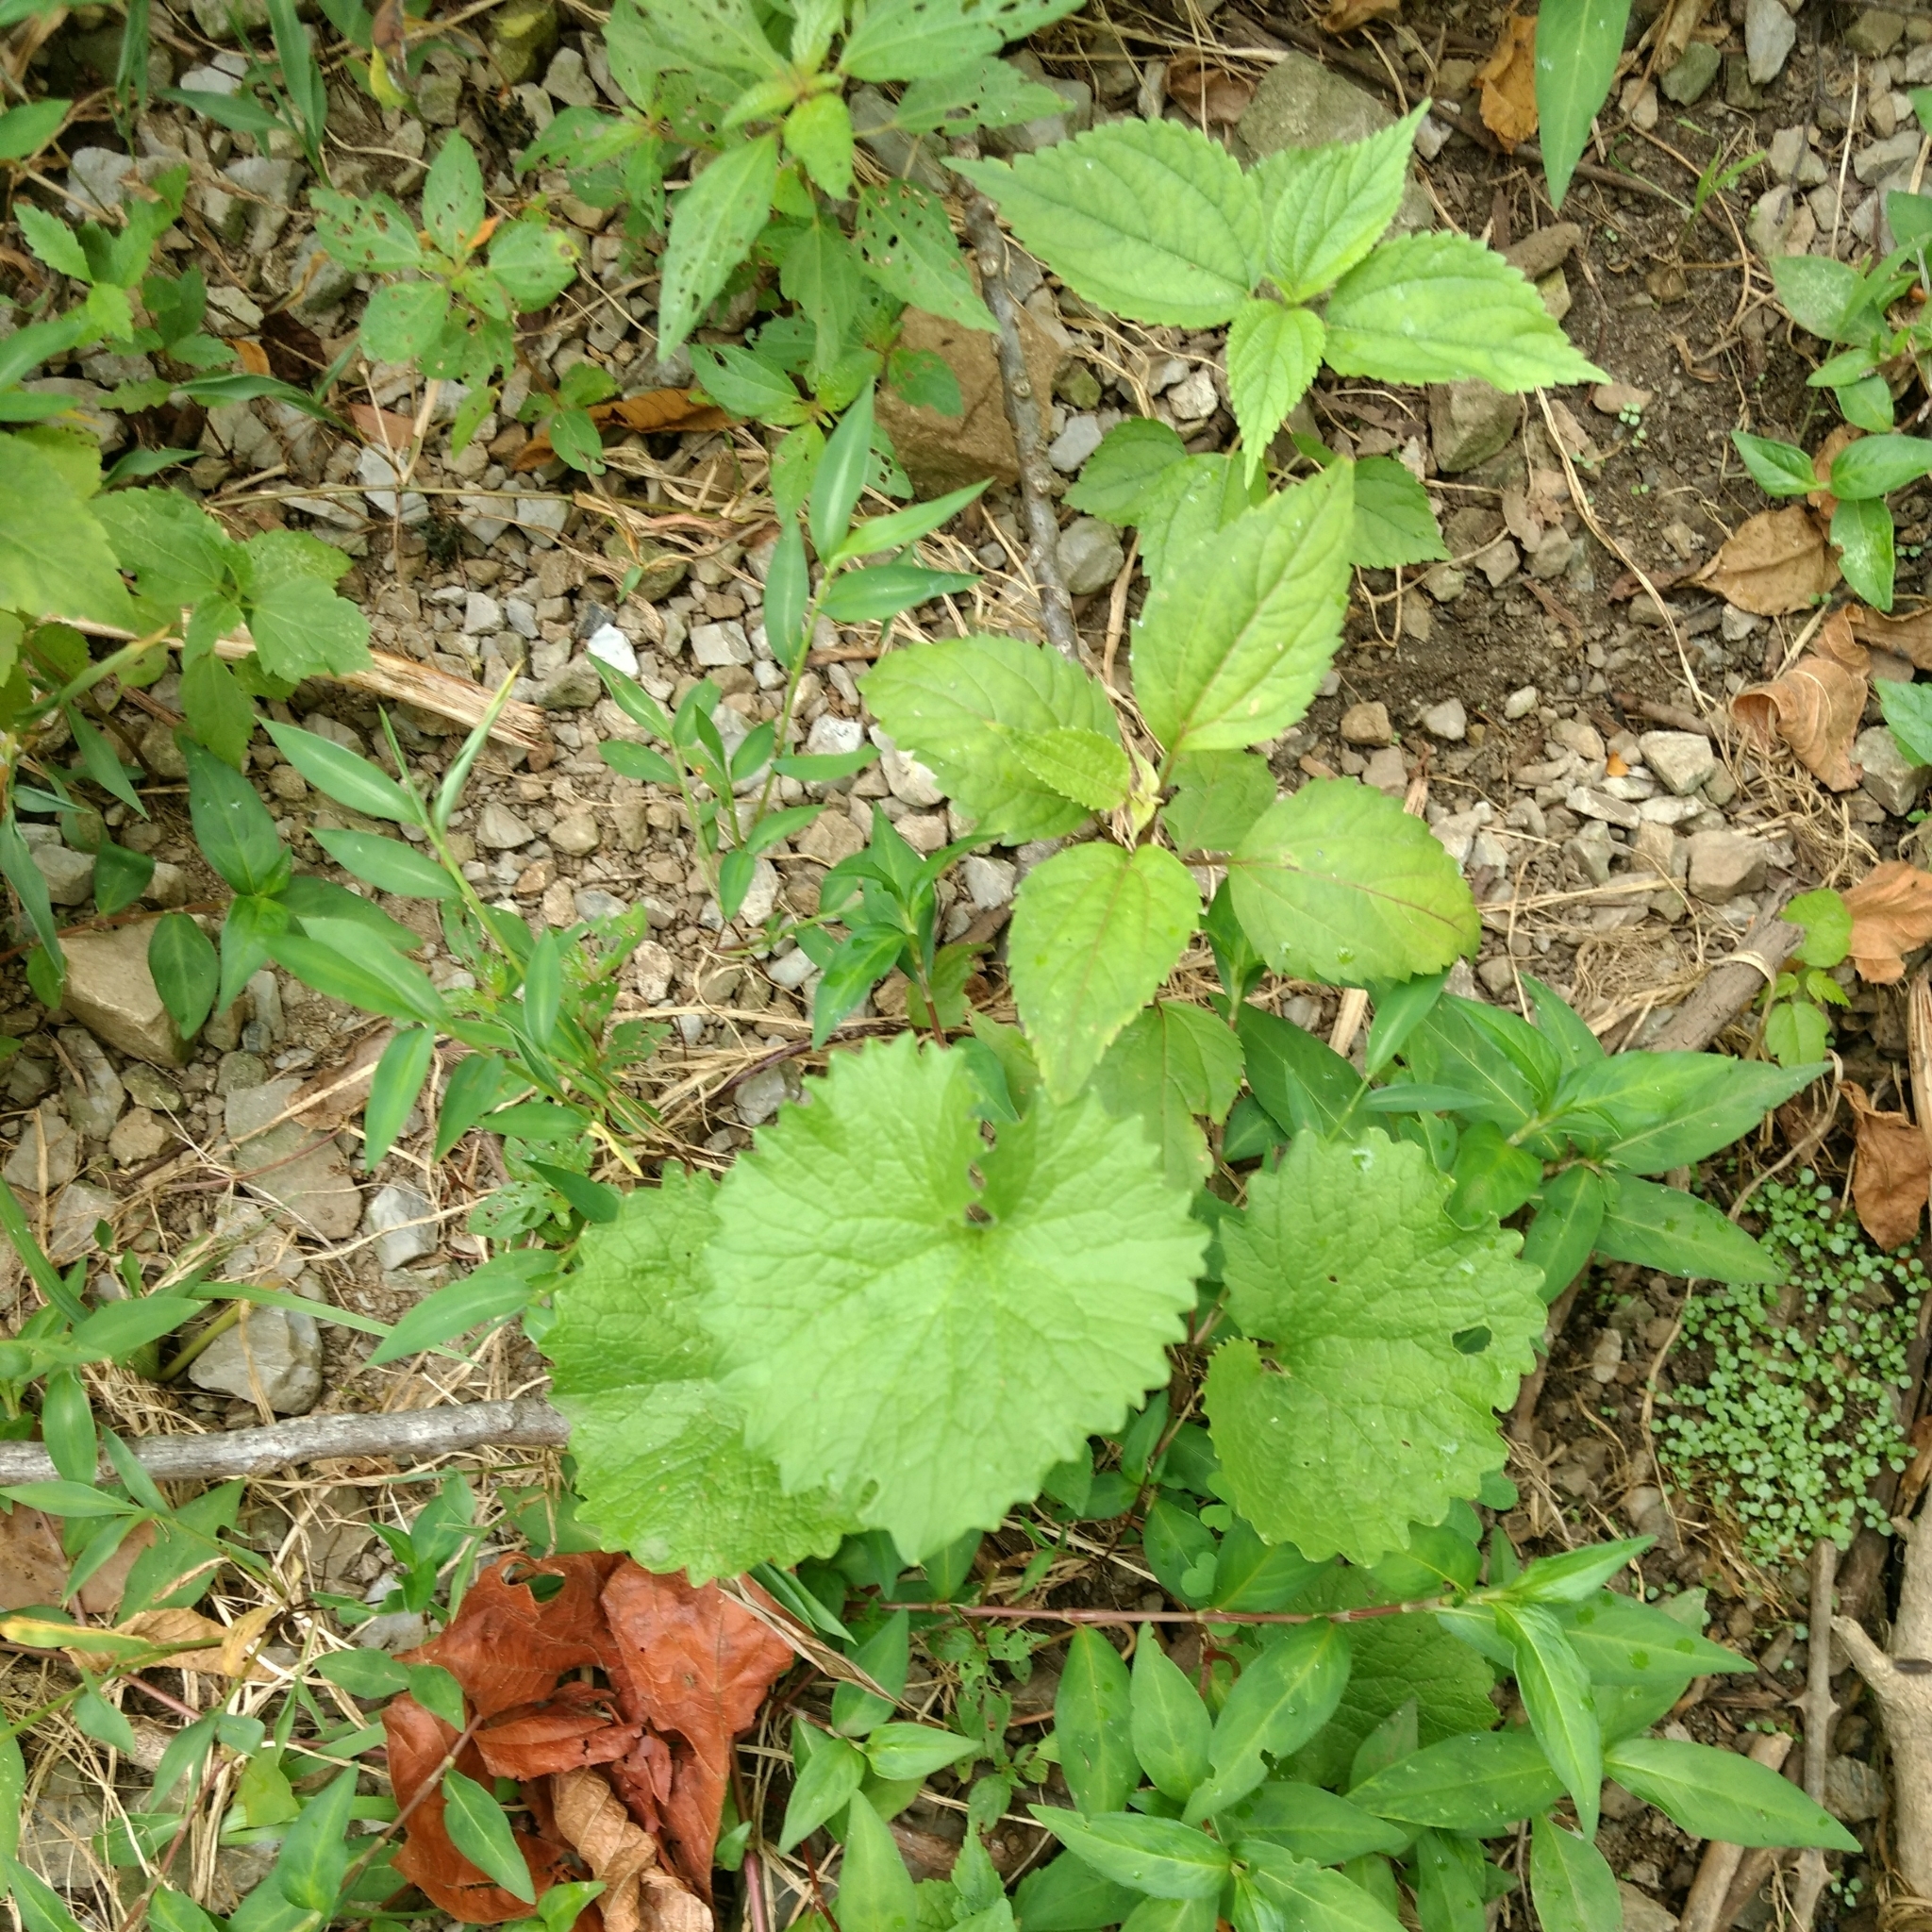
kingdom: Plantae
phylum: Tracheophyta
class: Magnoliopsida
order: Brassicales
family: Brassicaceae
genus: Alliaria
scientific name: Alliaria petiolata
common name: Garlic mustard
